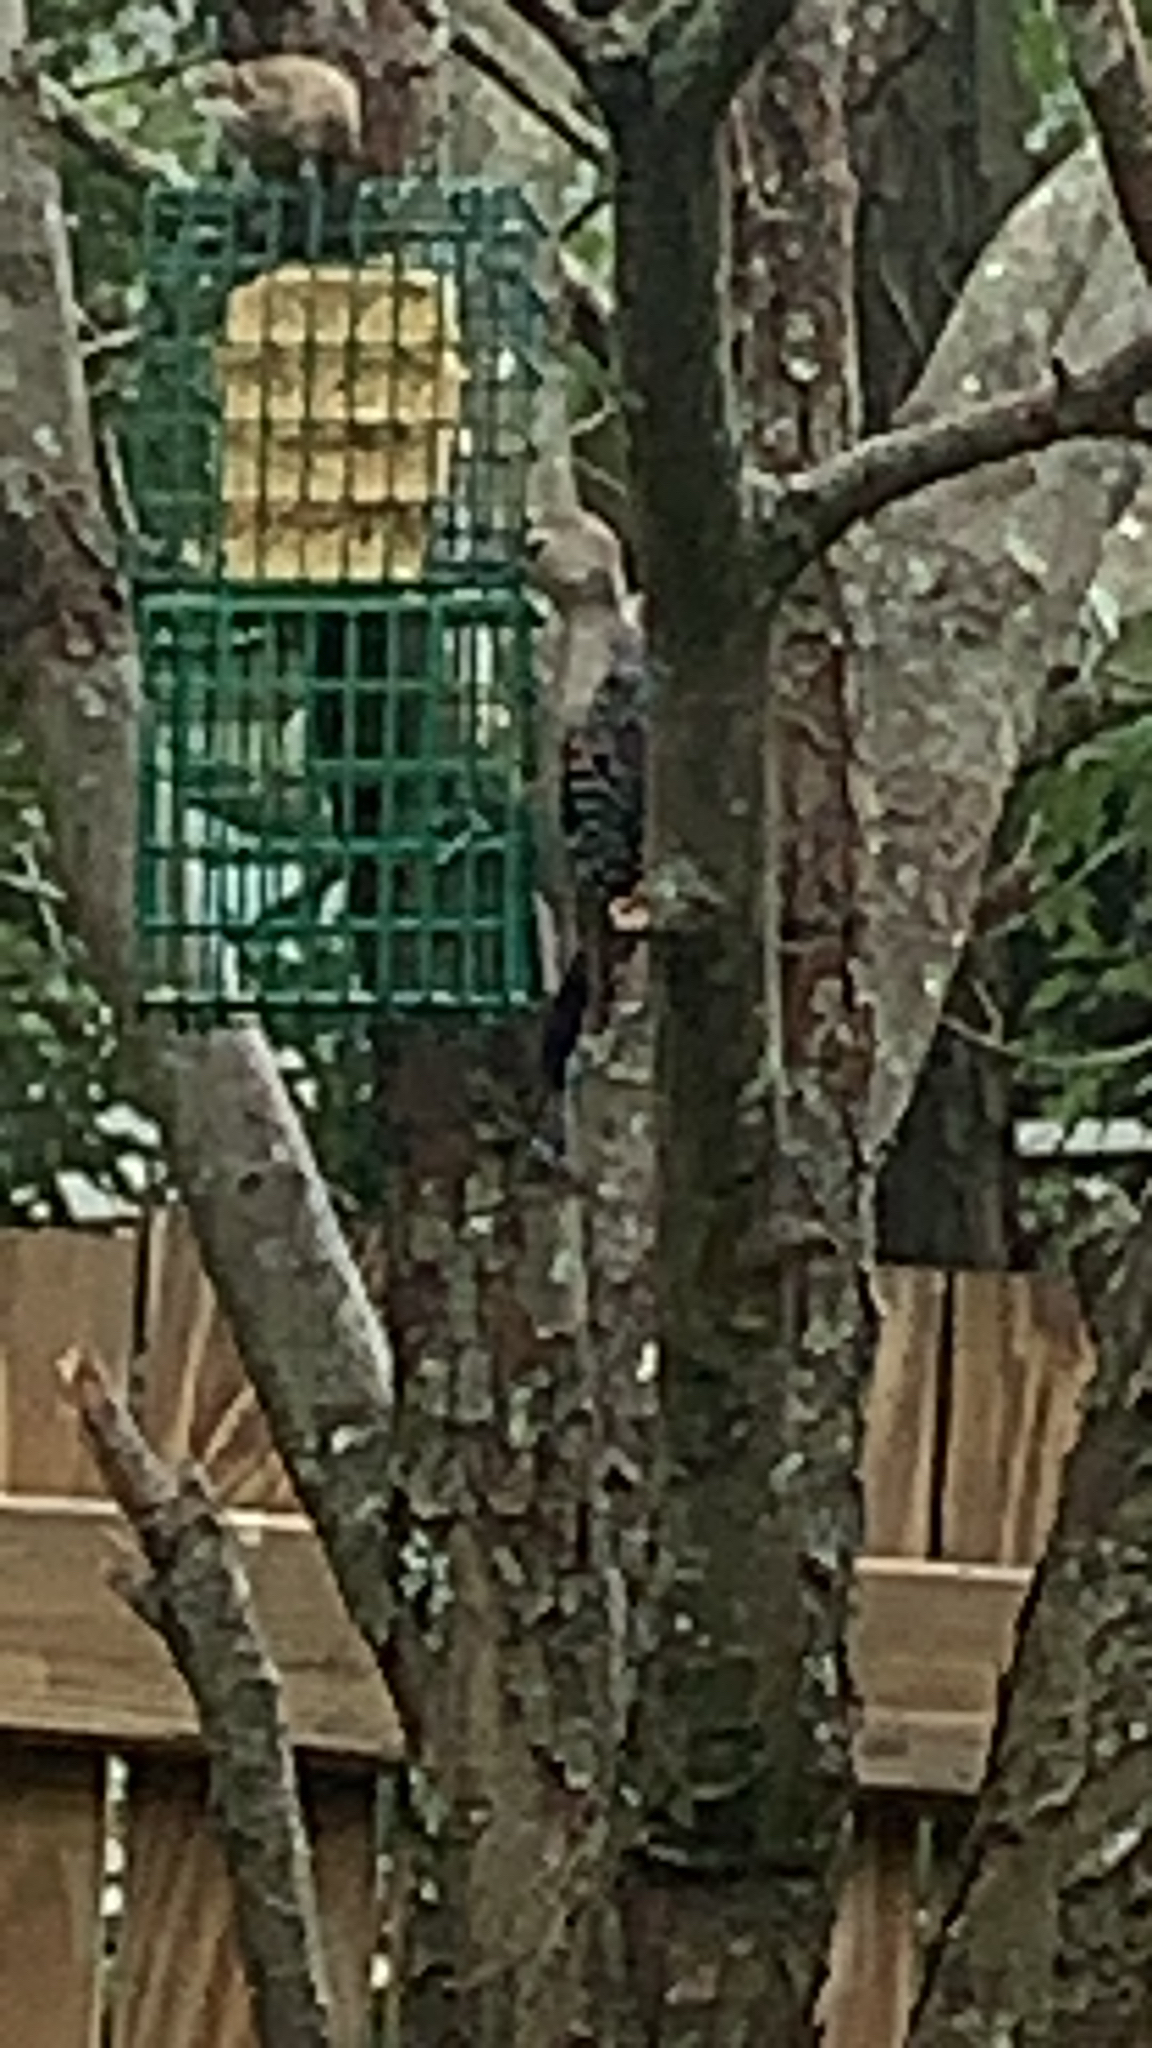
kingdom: Animalia
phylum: Chordata
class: Aves
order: Piciformes
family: Picidae
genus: Melanerpes
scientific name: Melanerpes carolinus
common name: Red-bellied woodpecker
